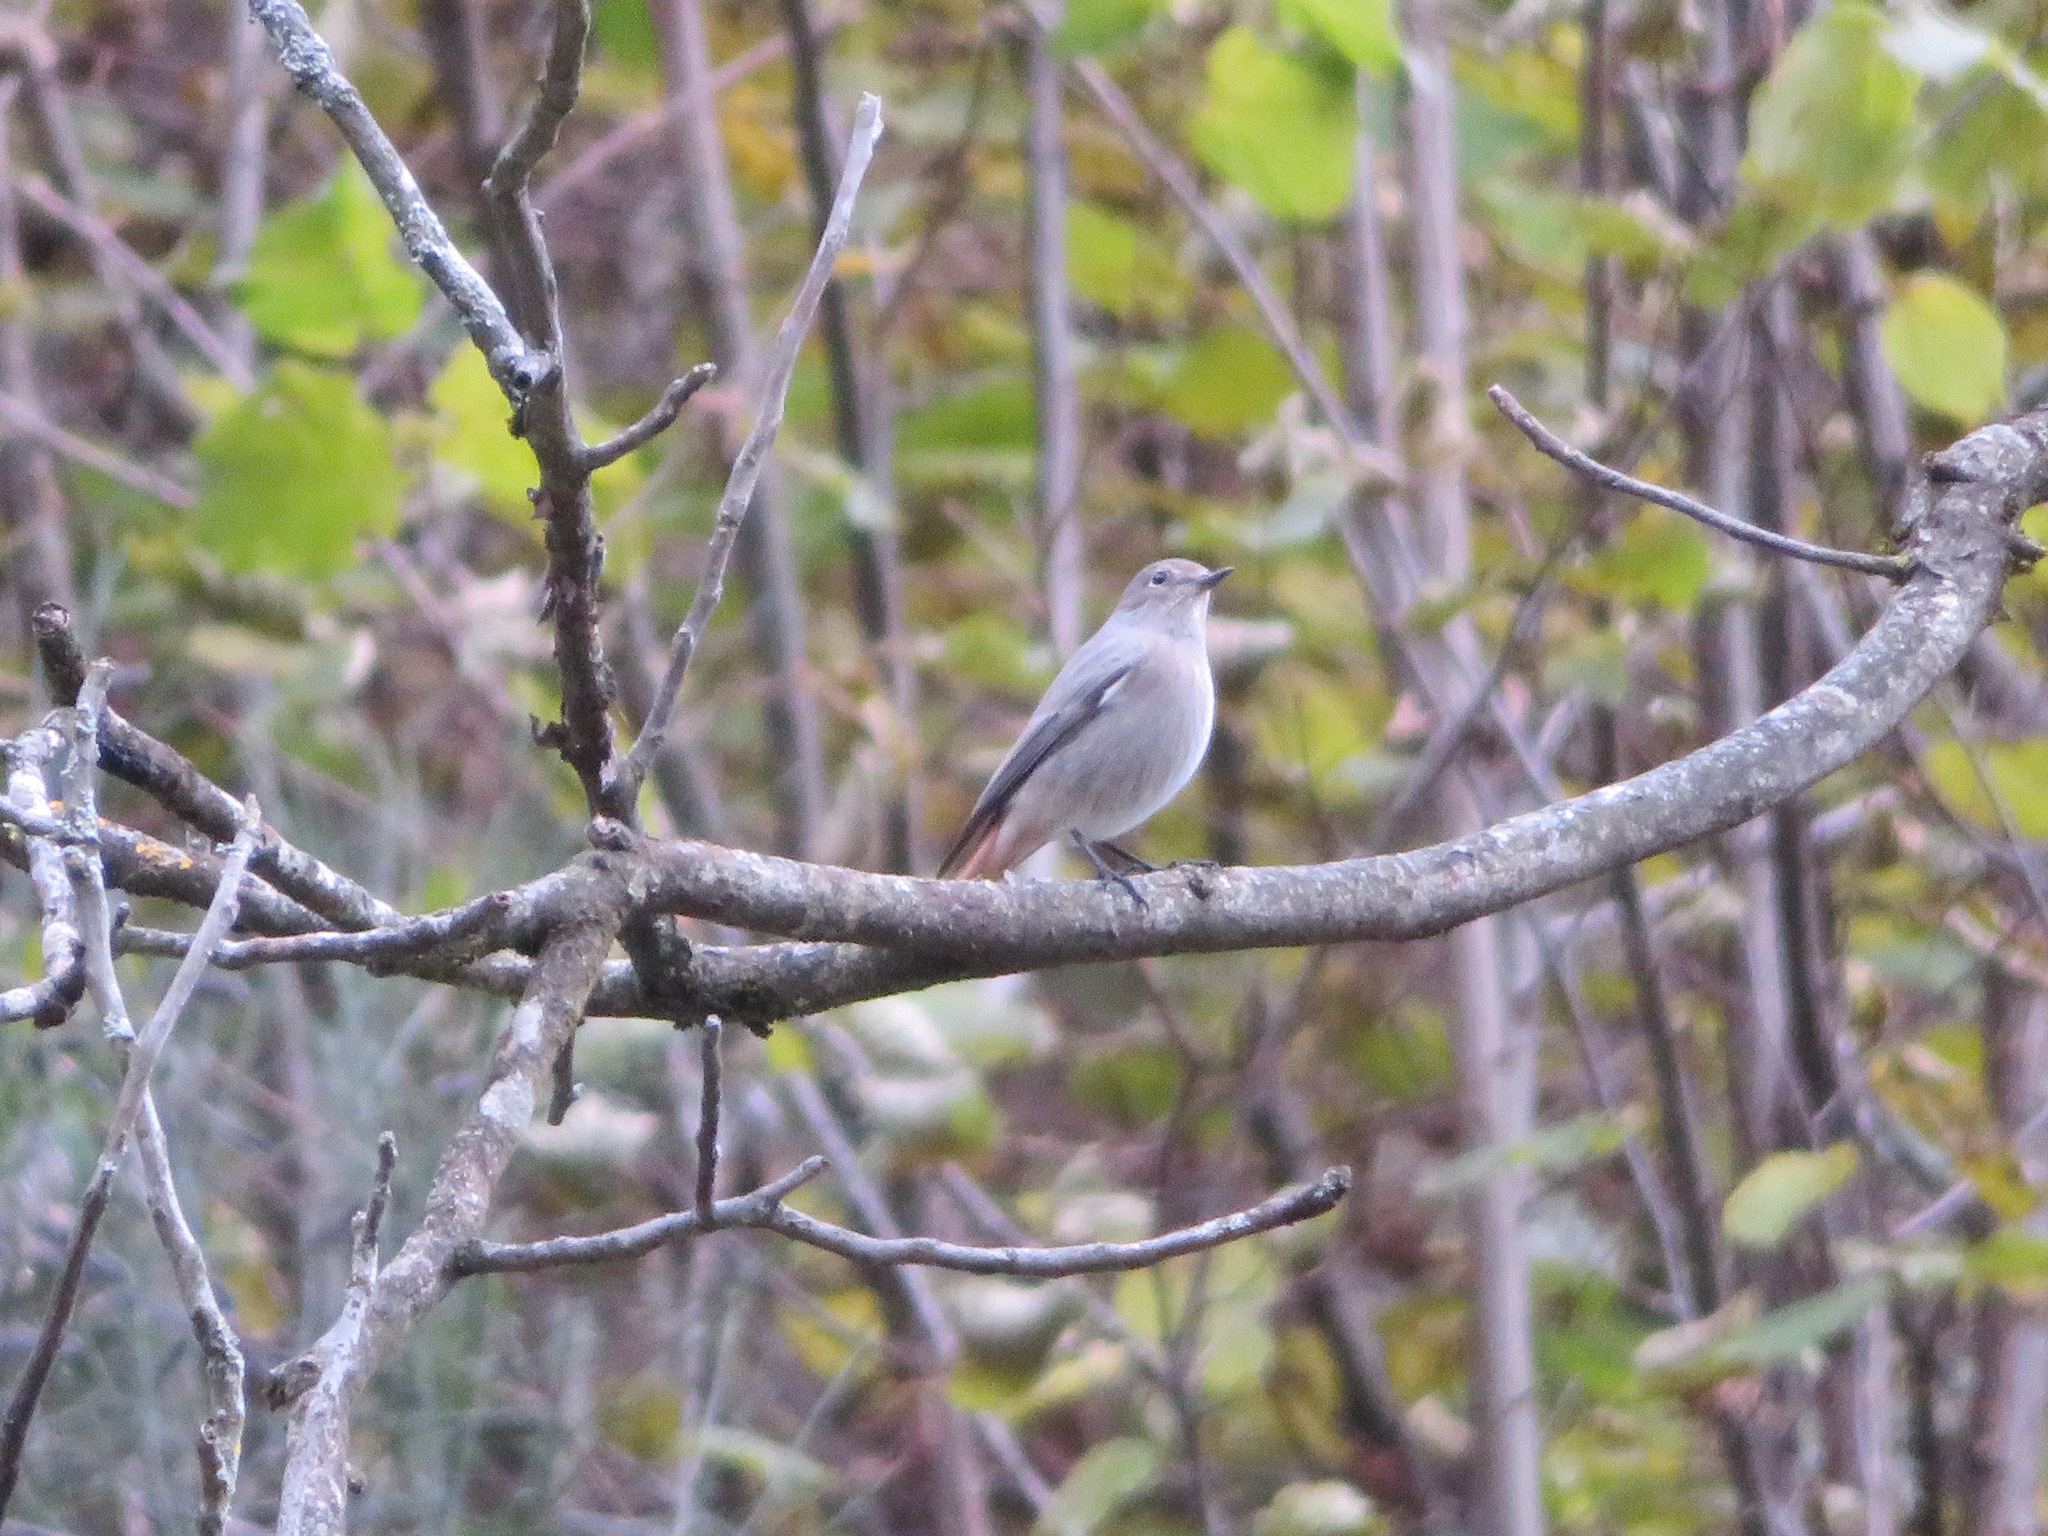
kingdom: Animalia
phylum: Chordata
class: Aves
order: Passeriformes
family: Muscicapidae
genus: Phoenicurus
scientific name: Phoenicurus ochruros
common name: Black redstart
